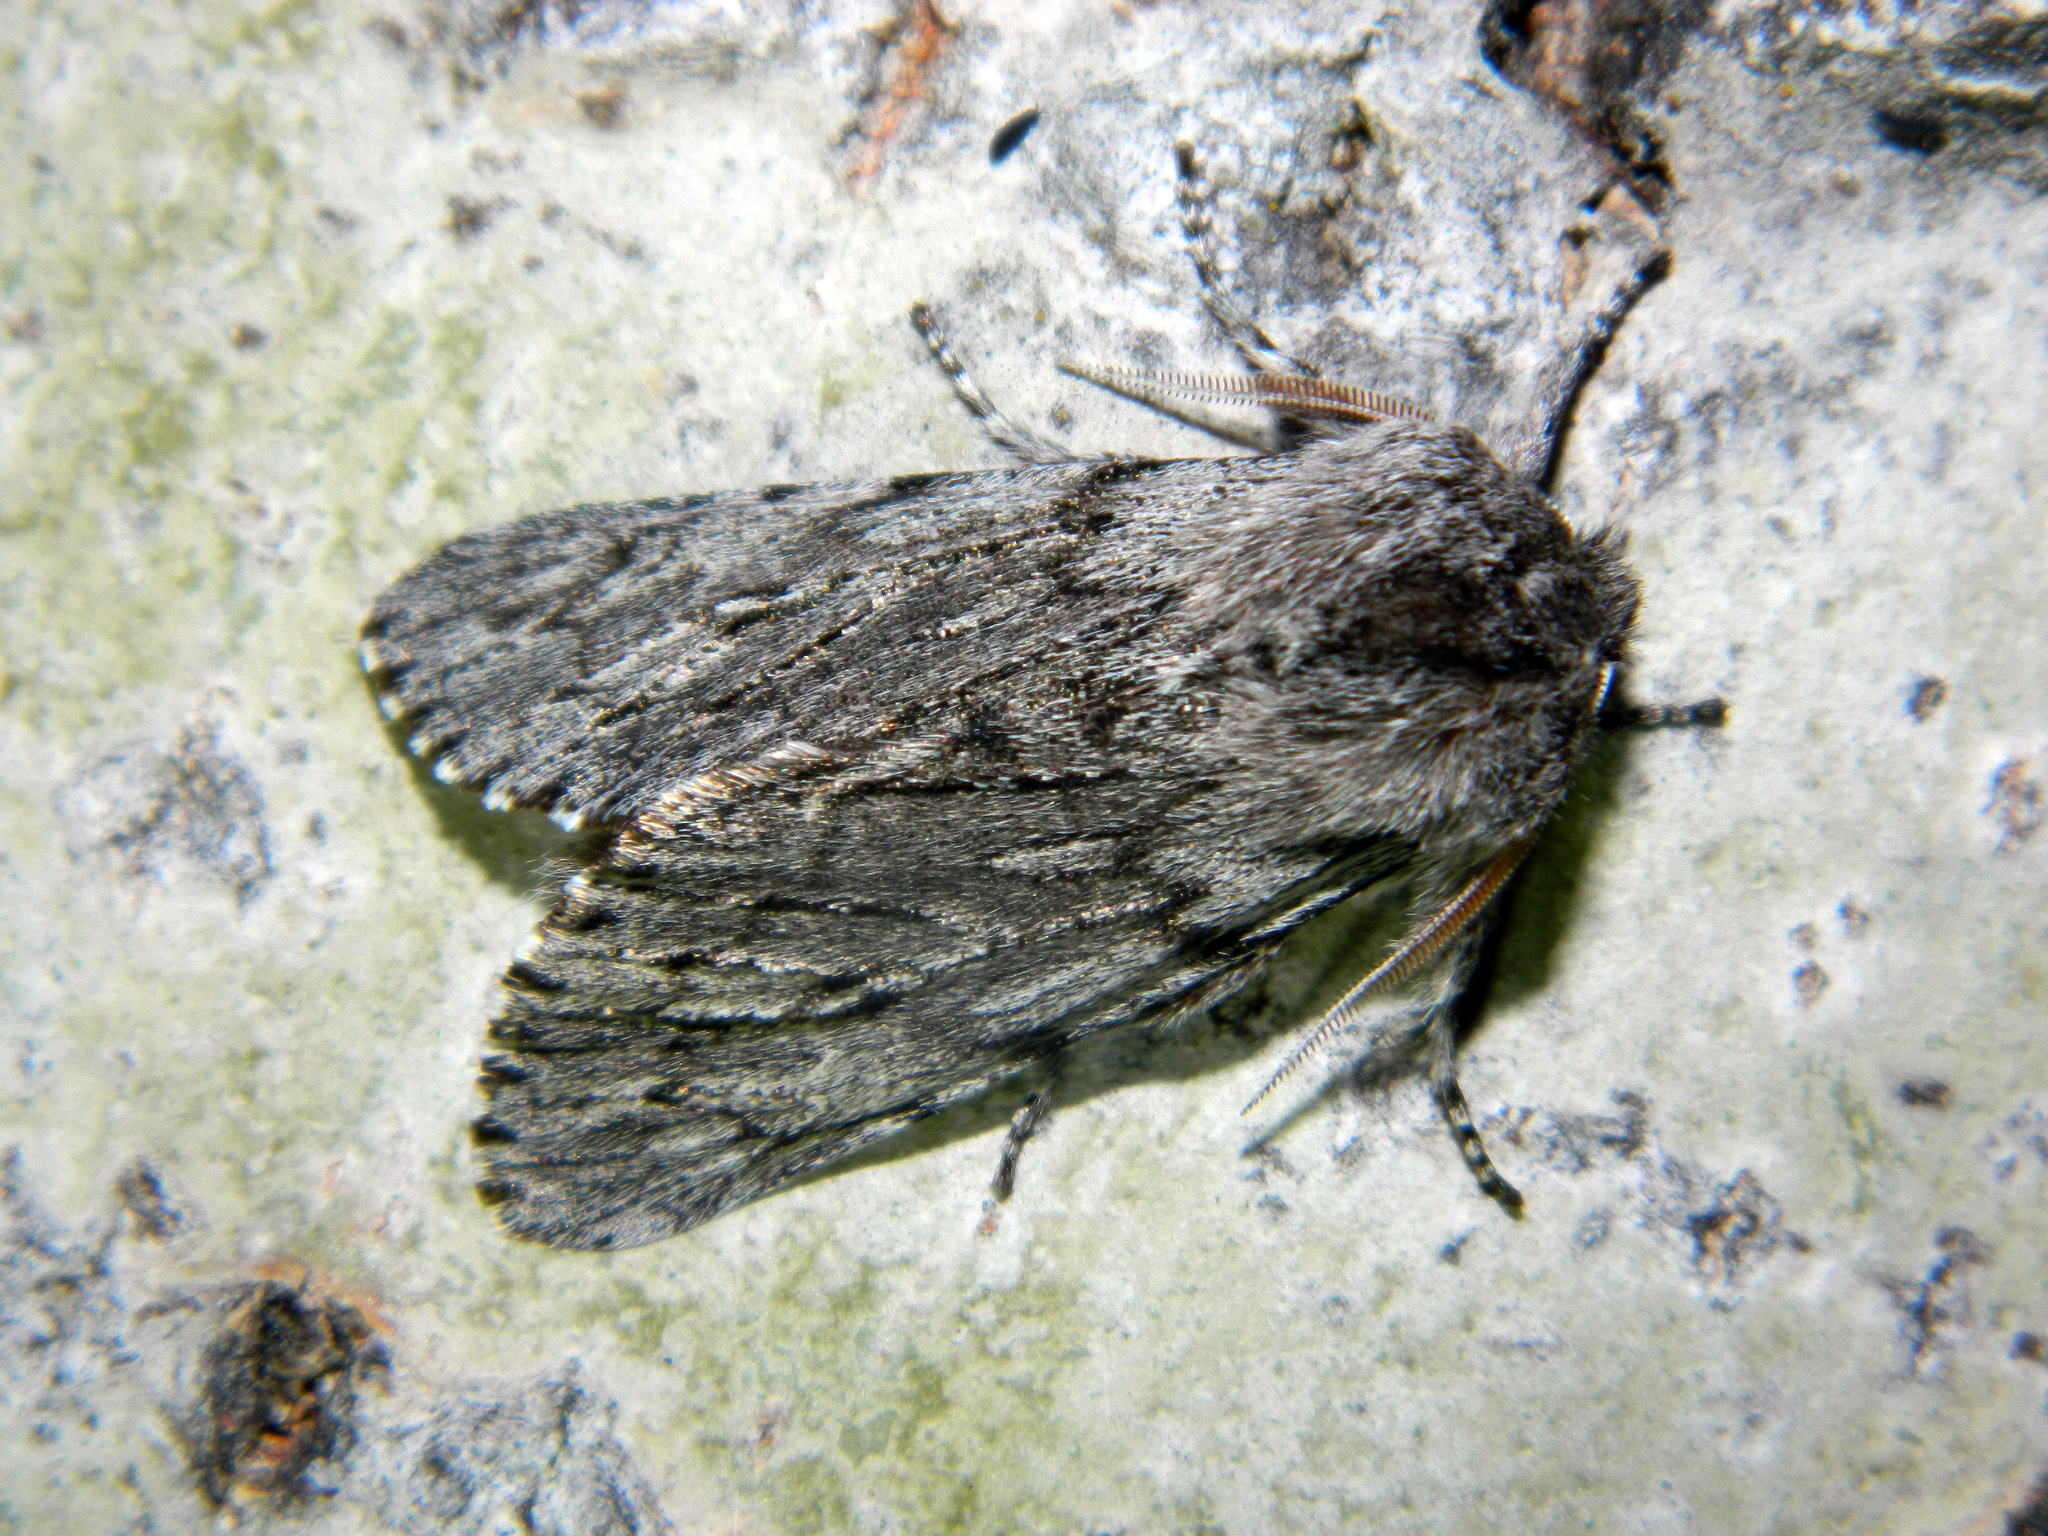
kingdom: Animalia
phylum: Arthropoda
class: Insecta
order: Lepidoptera
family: Noctuidae
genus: Brachionycha
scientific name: Brachionycha borealis
